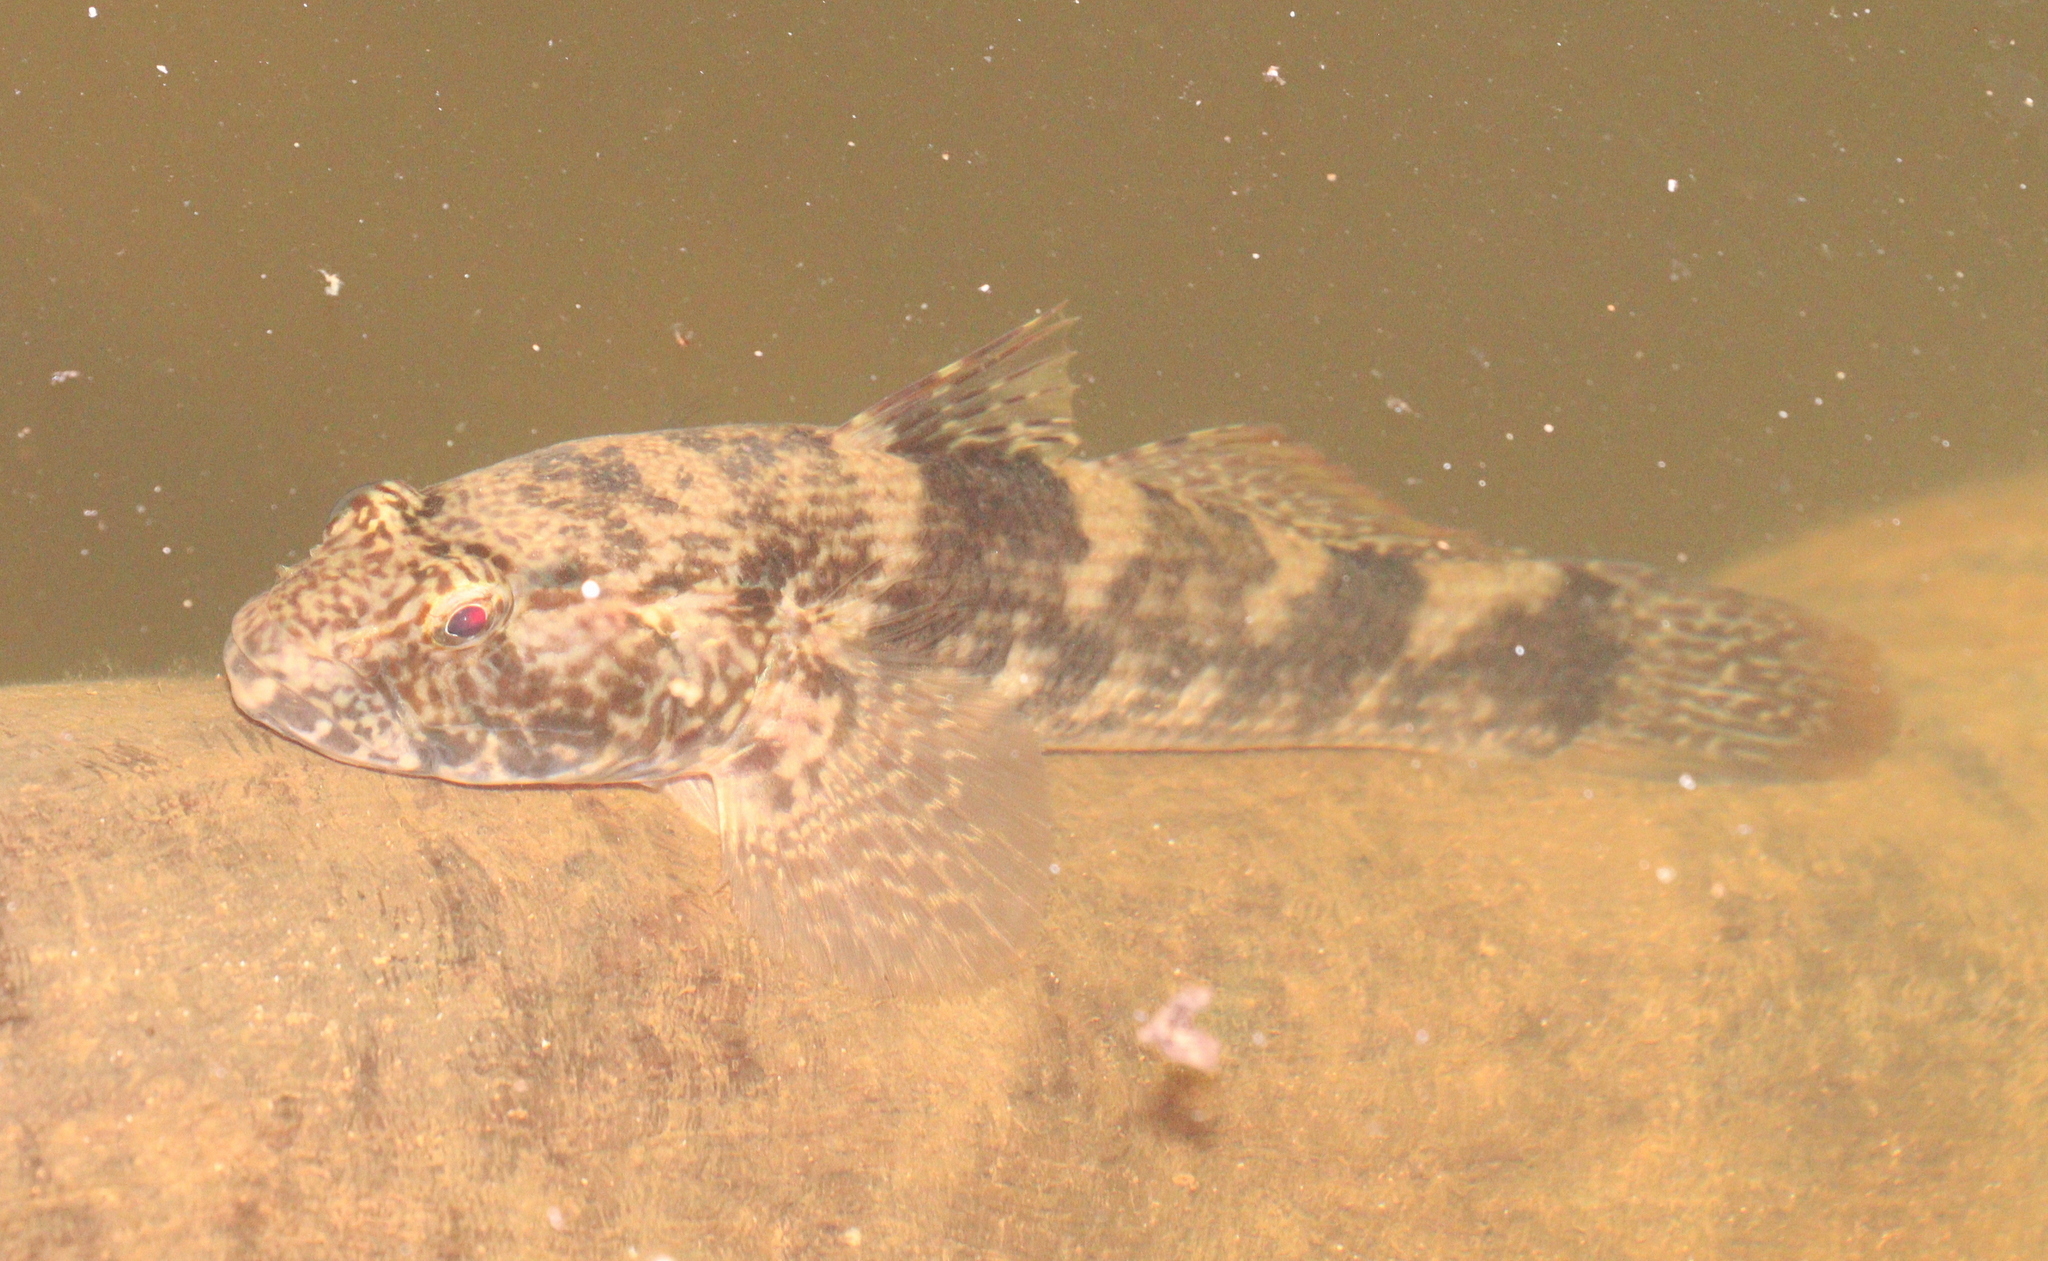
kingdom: Animalia
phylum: Chordata
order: Perciformes
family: Gobiidae
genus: Bathygobius
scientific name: Bathygobius soporator
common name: Frillfin goby
